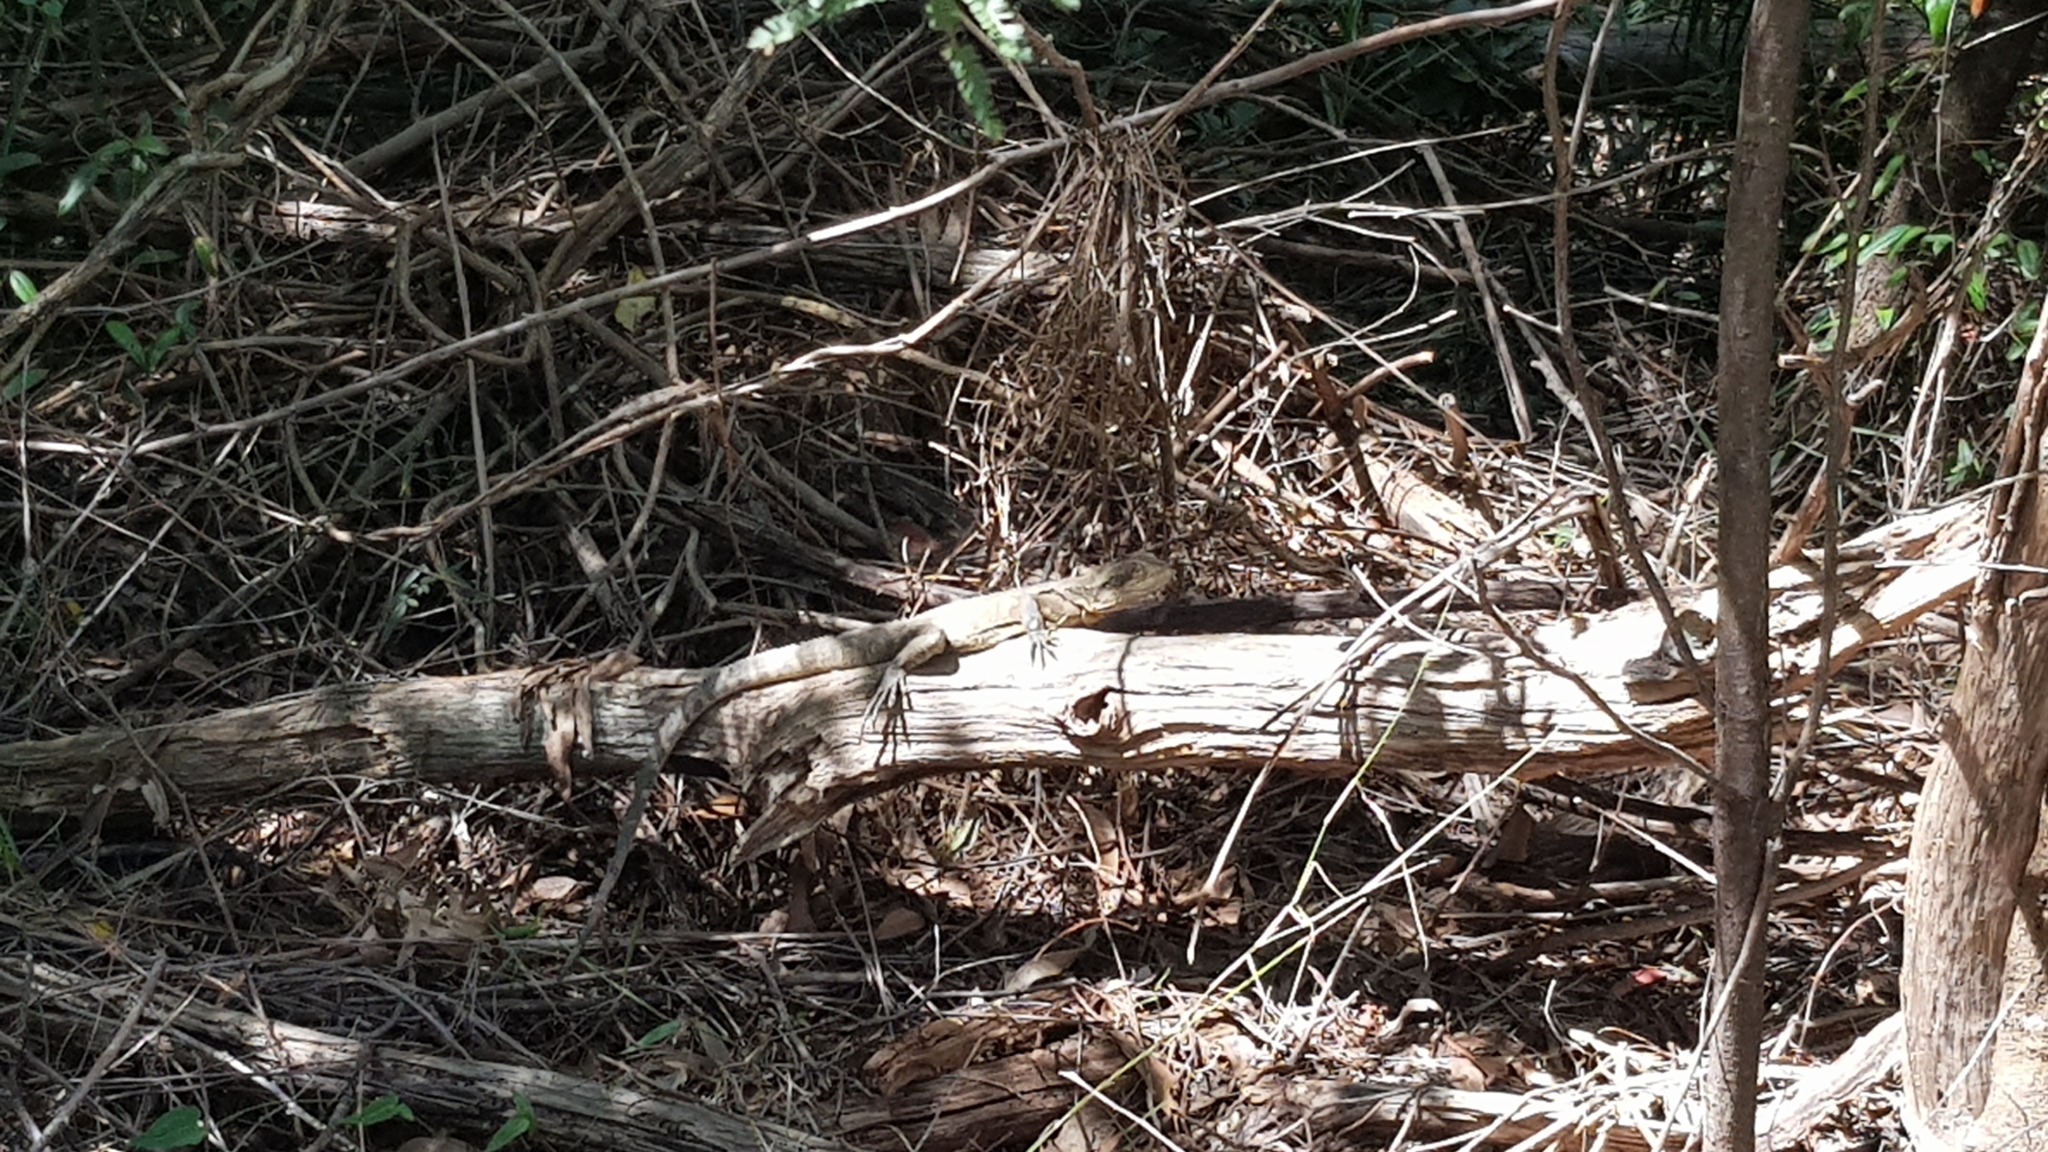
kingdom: Animalia
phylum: Chordata
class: Squamata
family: Agamidae
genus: Intellagama
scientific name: Intellagama lesueurii
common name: Eastern water dragon
